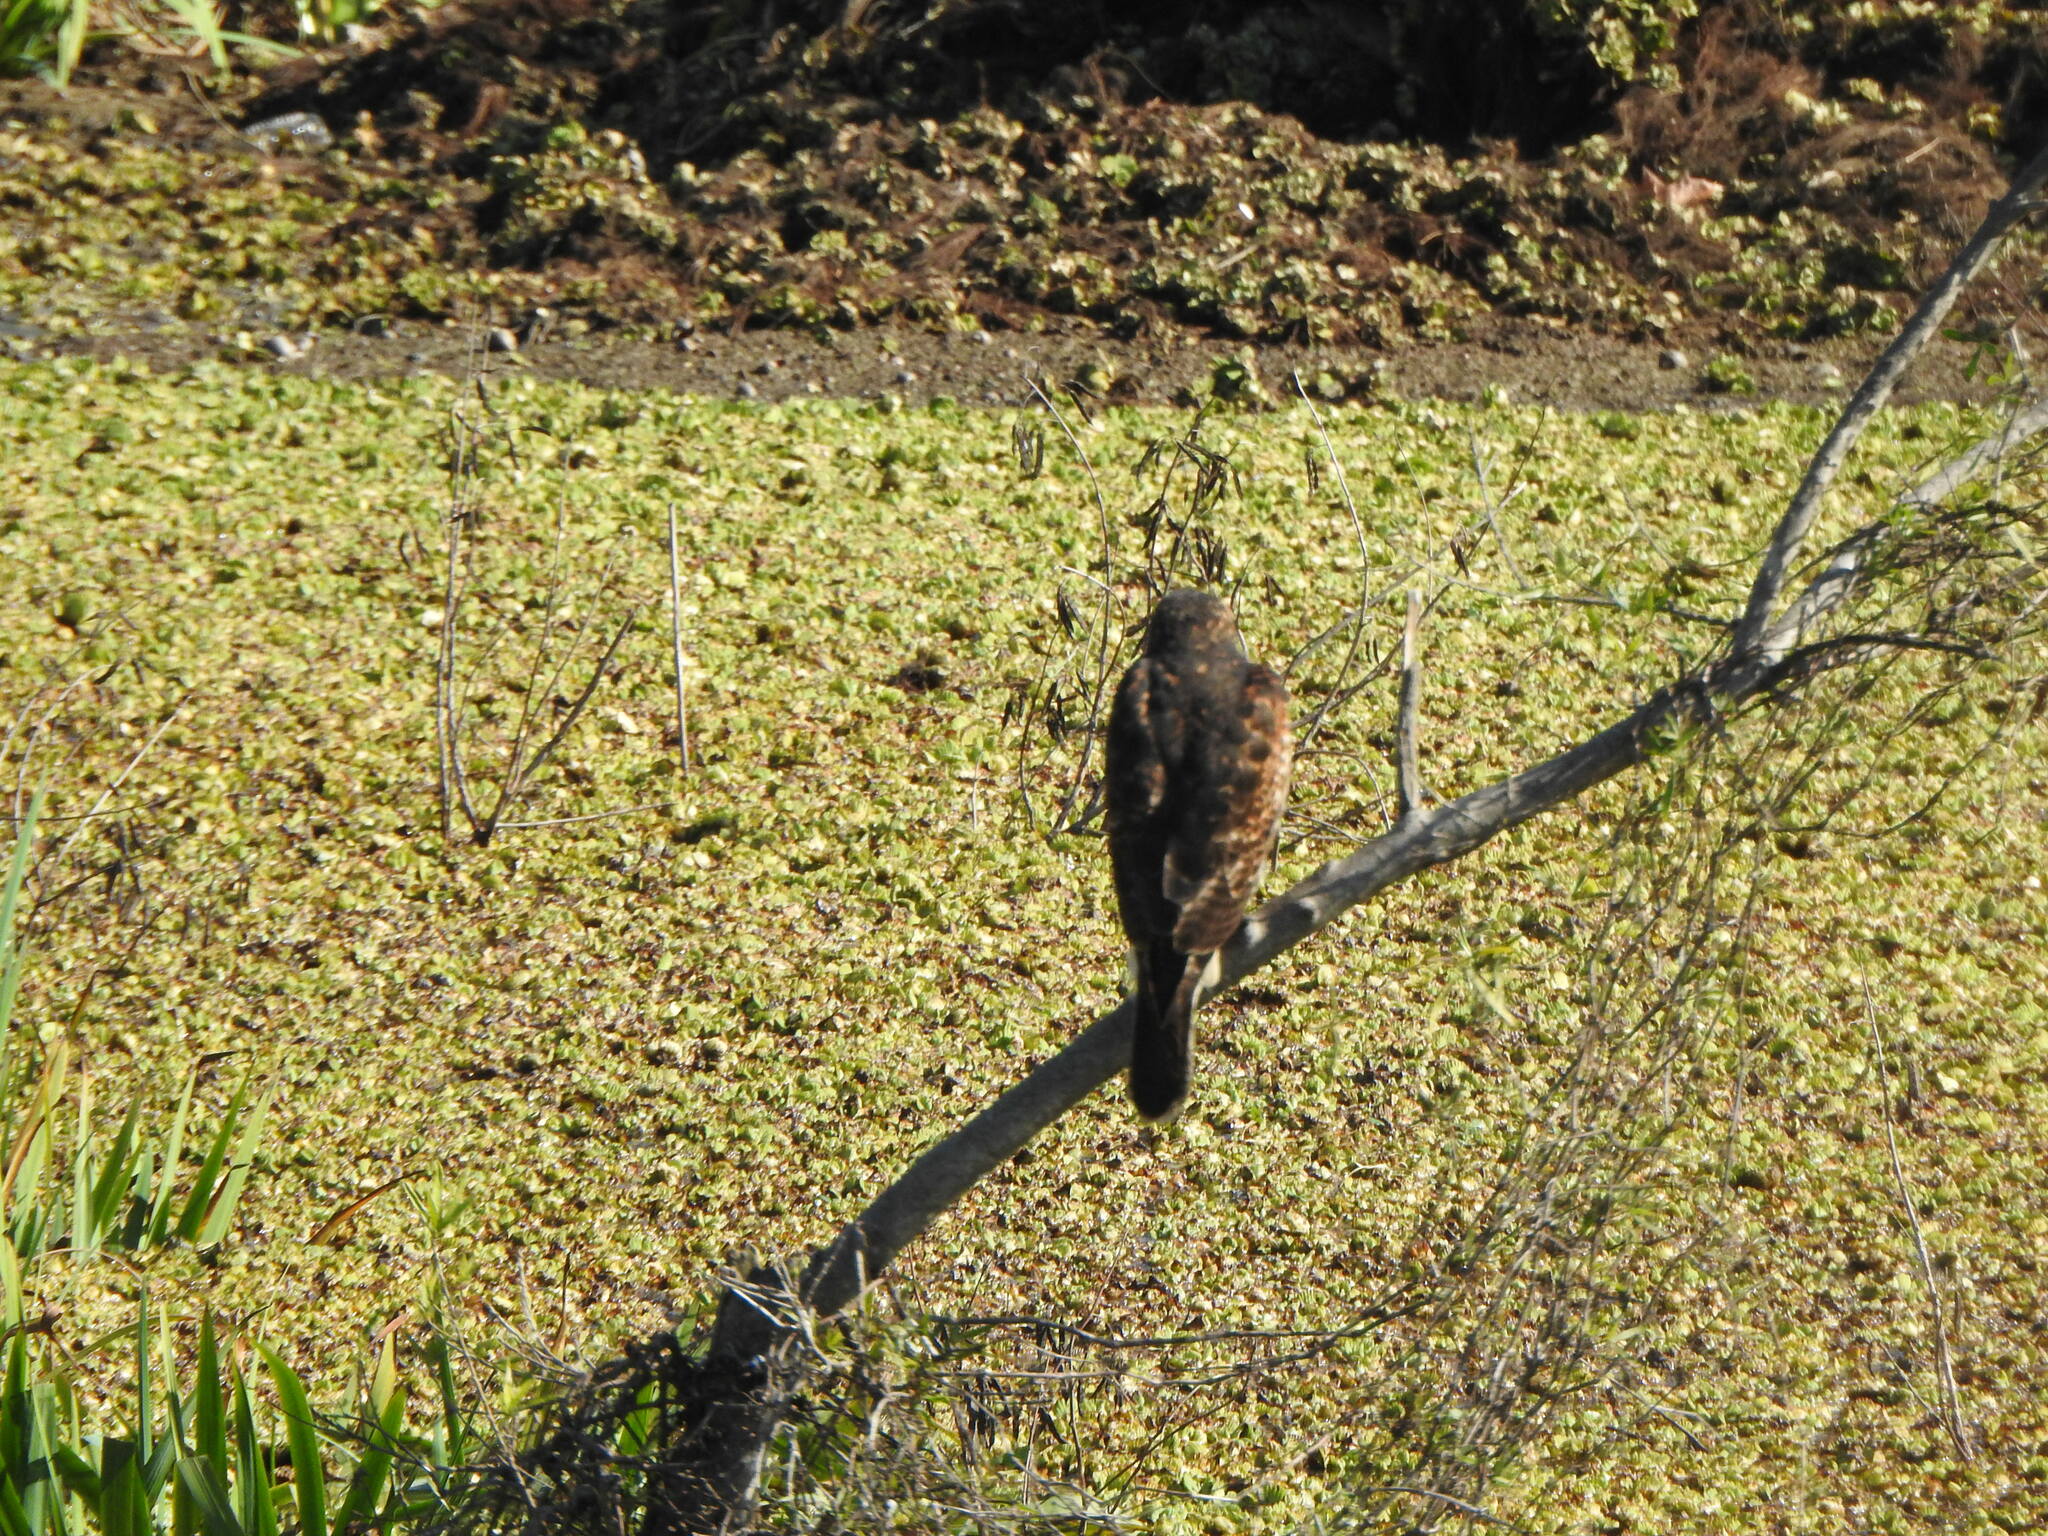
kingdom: Animalia
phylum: Chordata
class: Aves
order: Accipitriformes
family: Accipitridae
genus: Parabuteo
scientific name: Parabuteo unicinctus
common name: Harris's hawk
